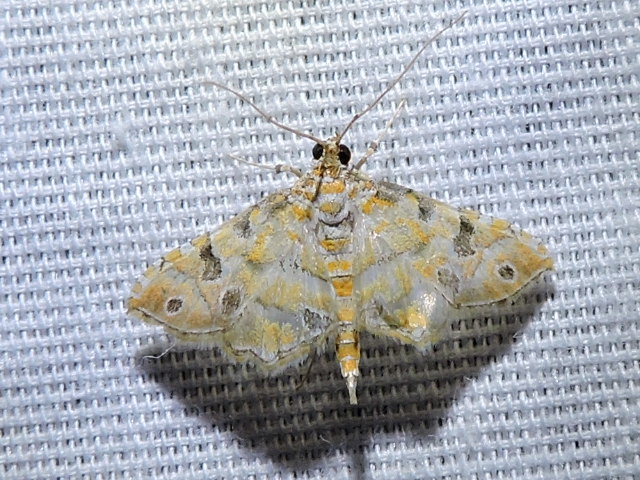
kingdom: Animalia
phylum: Arthropoda
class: Insecta
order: Lepidoptera
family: Crambidae
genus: Ommatospila
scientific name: Ommatospila narcaeusalis
